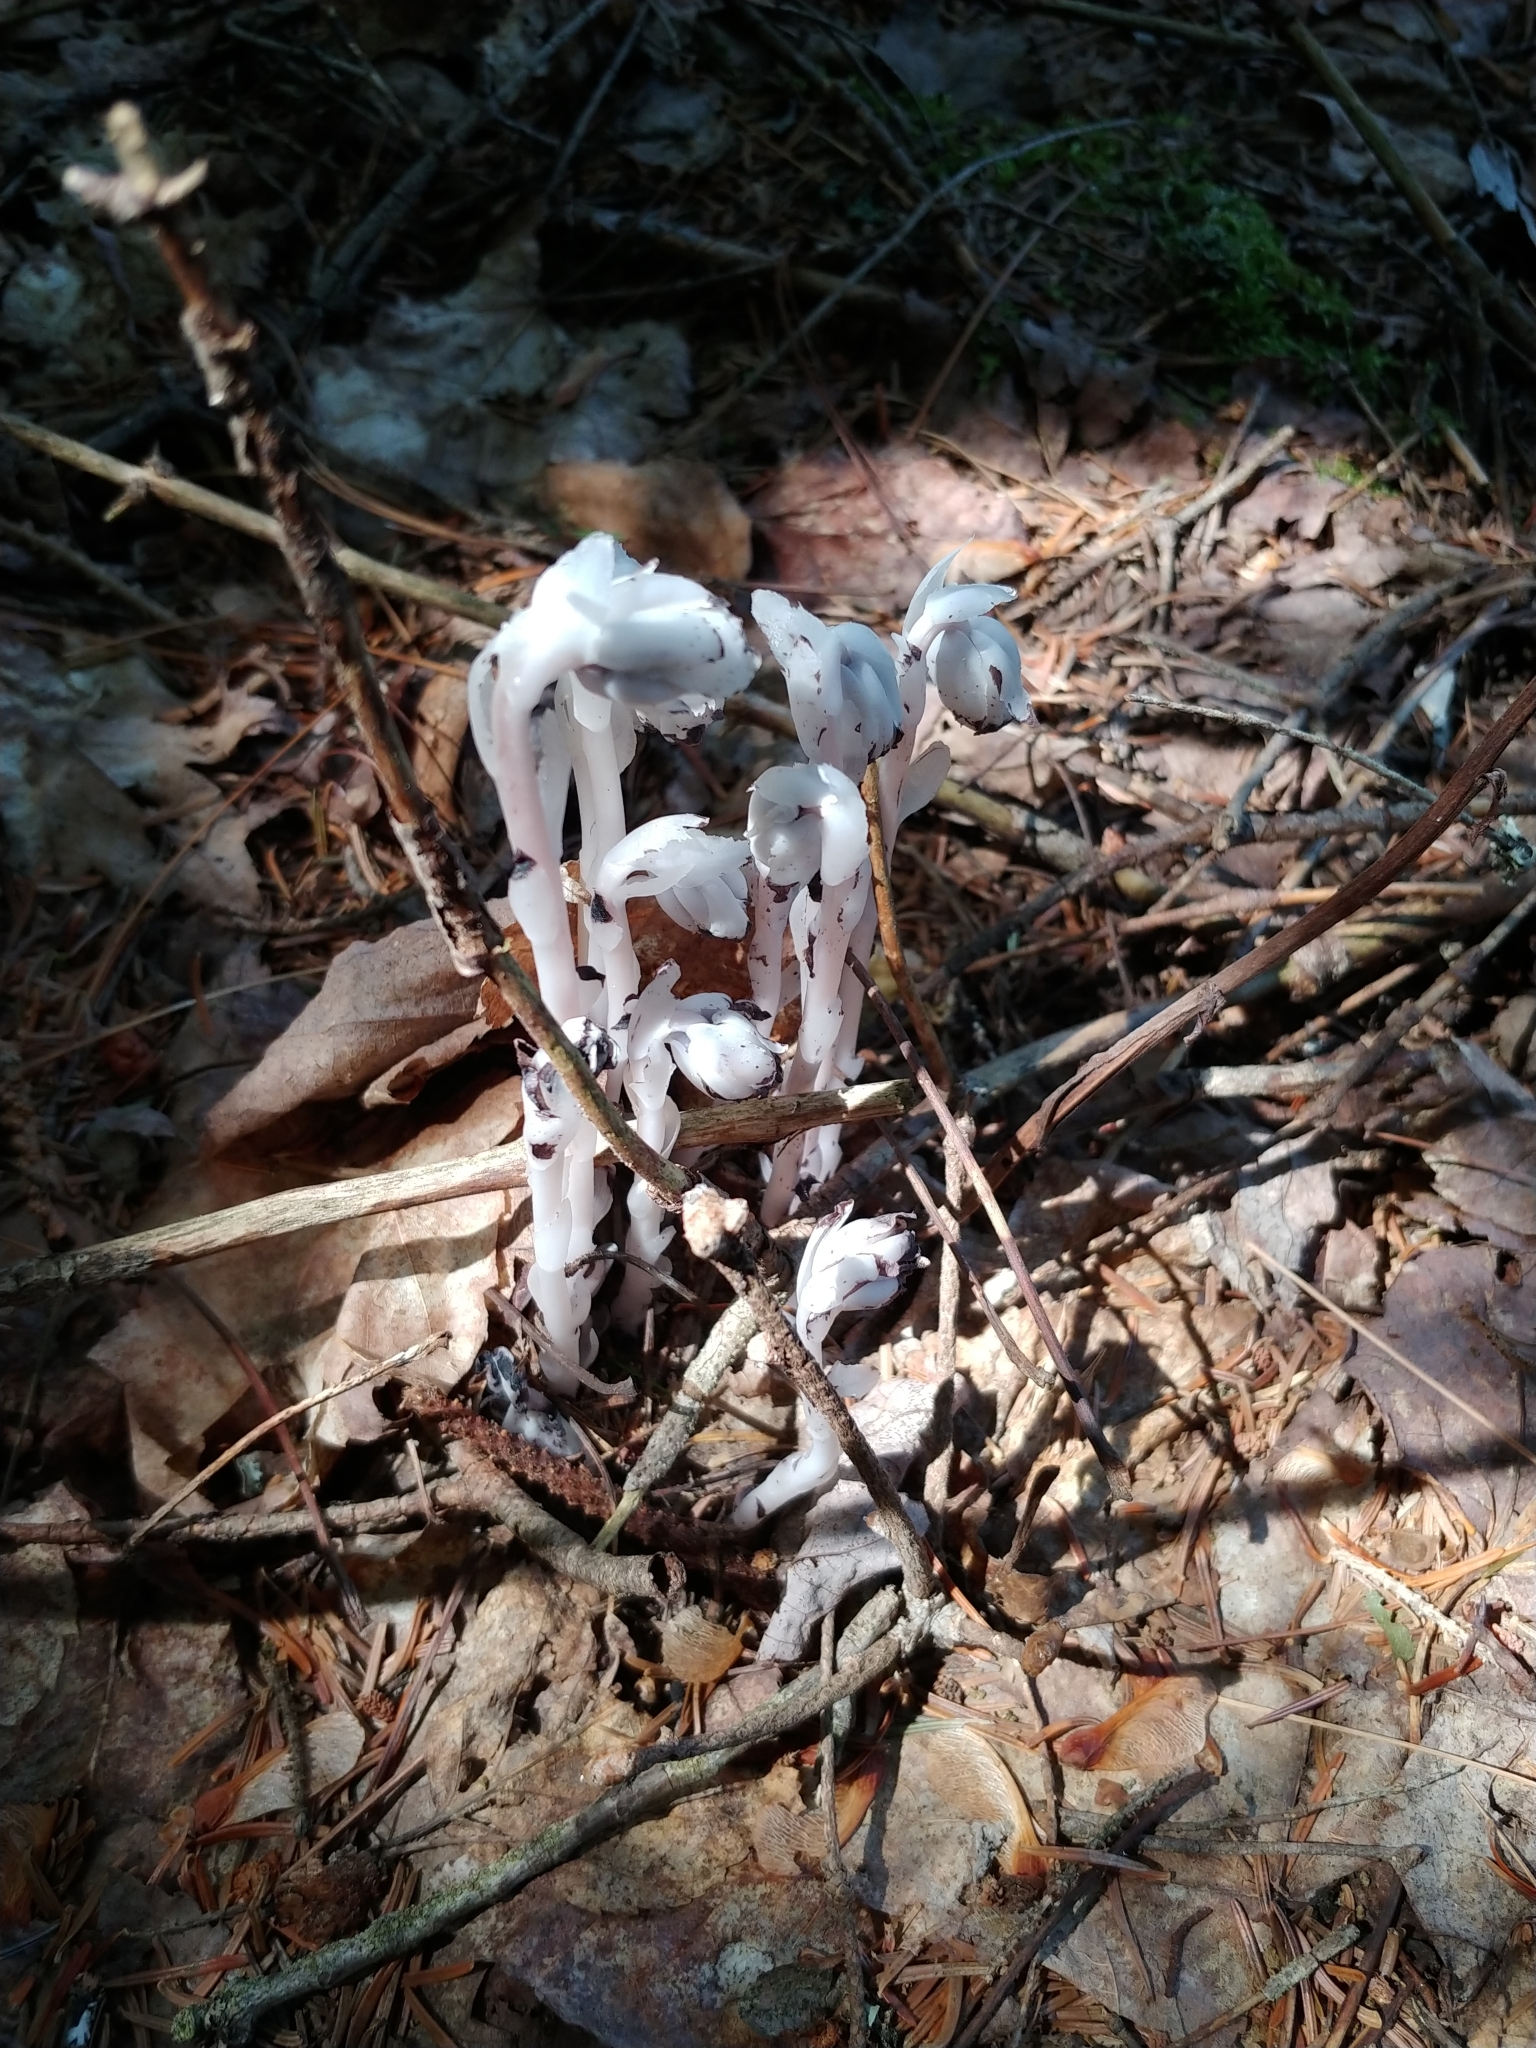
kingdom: Plantae
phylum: Tracheophyta
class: Magnoliopsida
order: Ericales
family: Ericaceae
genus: Monotropa
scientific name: Monotropa uniflora
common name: Convulsion root
